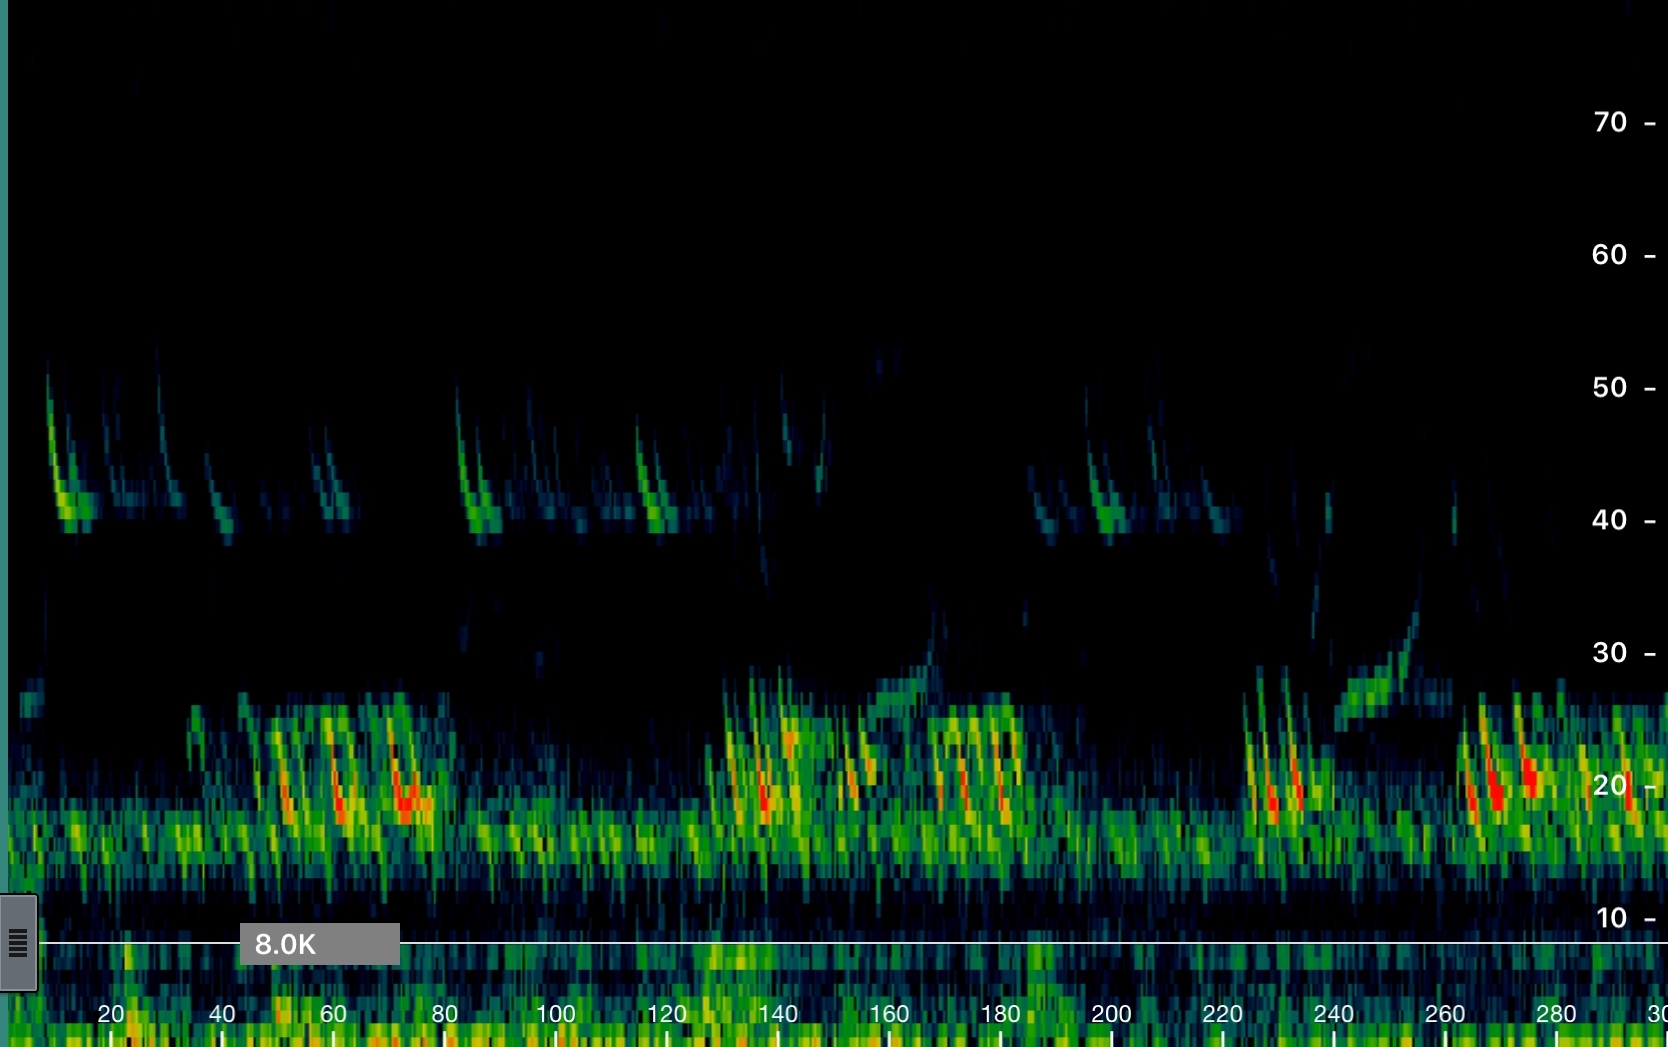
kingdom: Animalia
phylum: Chordata
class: Mammalia
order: Chiroptera
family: Vespertilionidae
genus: Pipistrellus
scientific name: Pipistrellus nathusii
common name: Nathusius's pipistrelle
